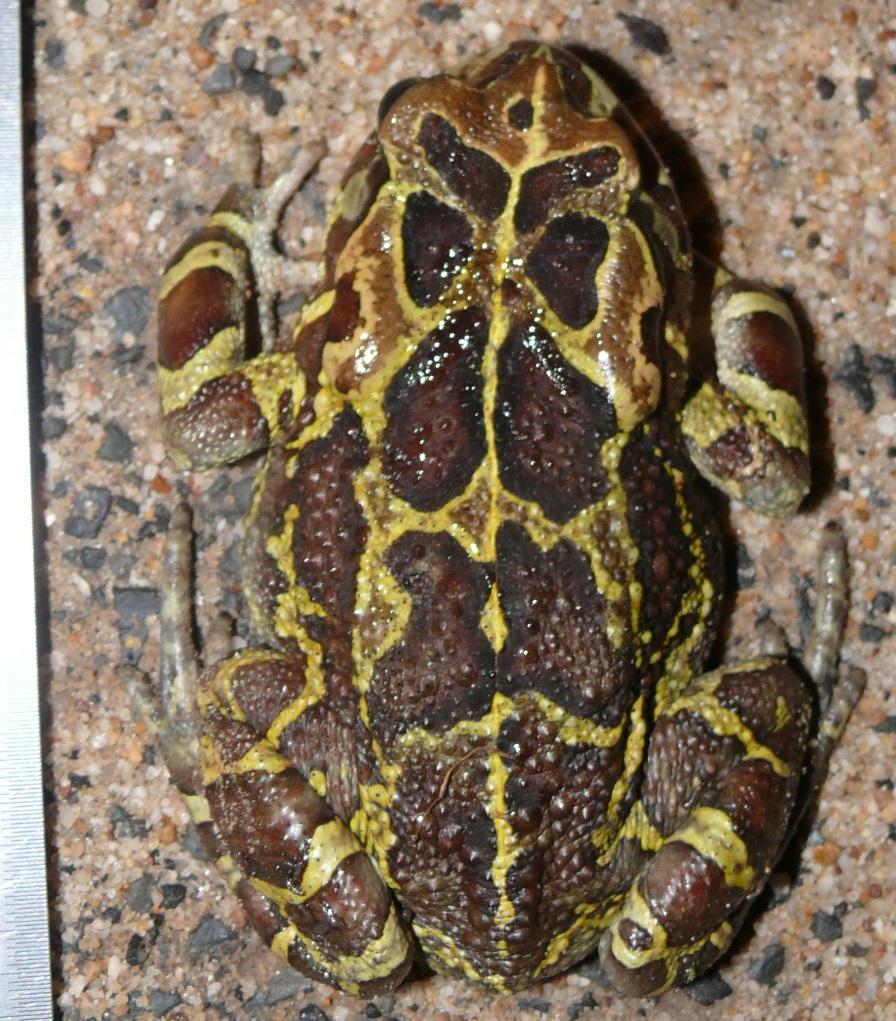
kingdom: Animalia
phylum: Chordata
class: Amphibia
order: Anura
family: Bufonidae
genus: Sclerophrys
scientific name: Sclerophrys pantherina
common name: Panther toad
